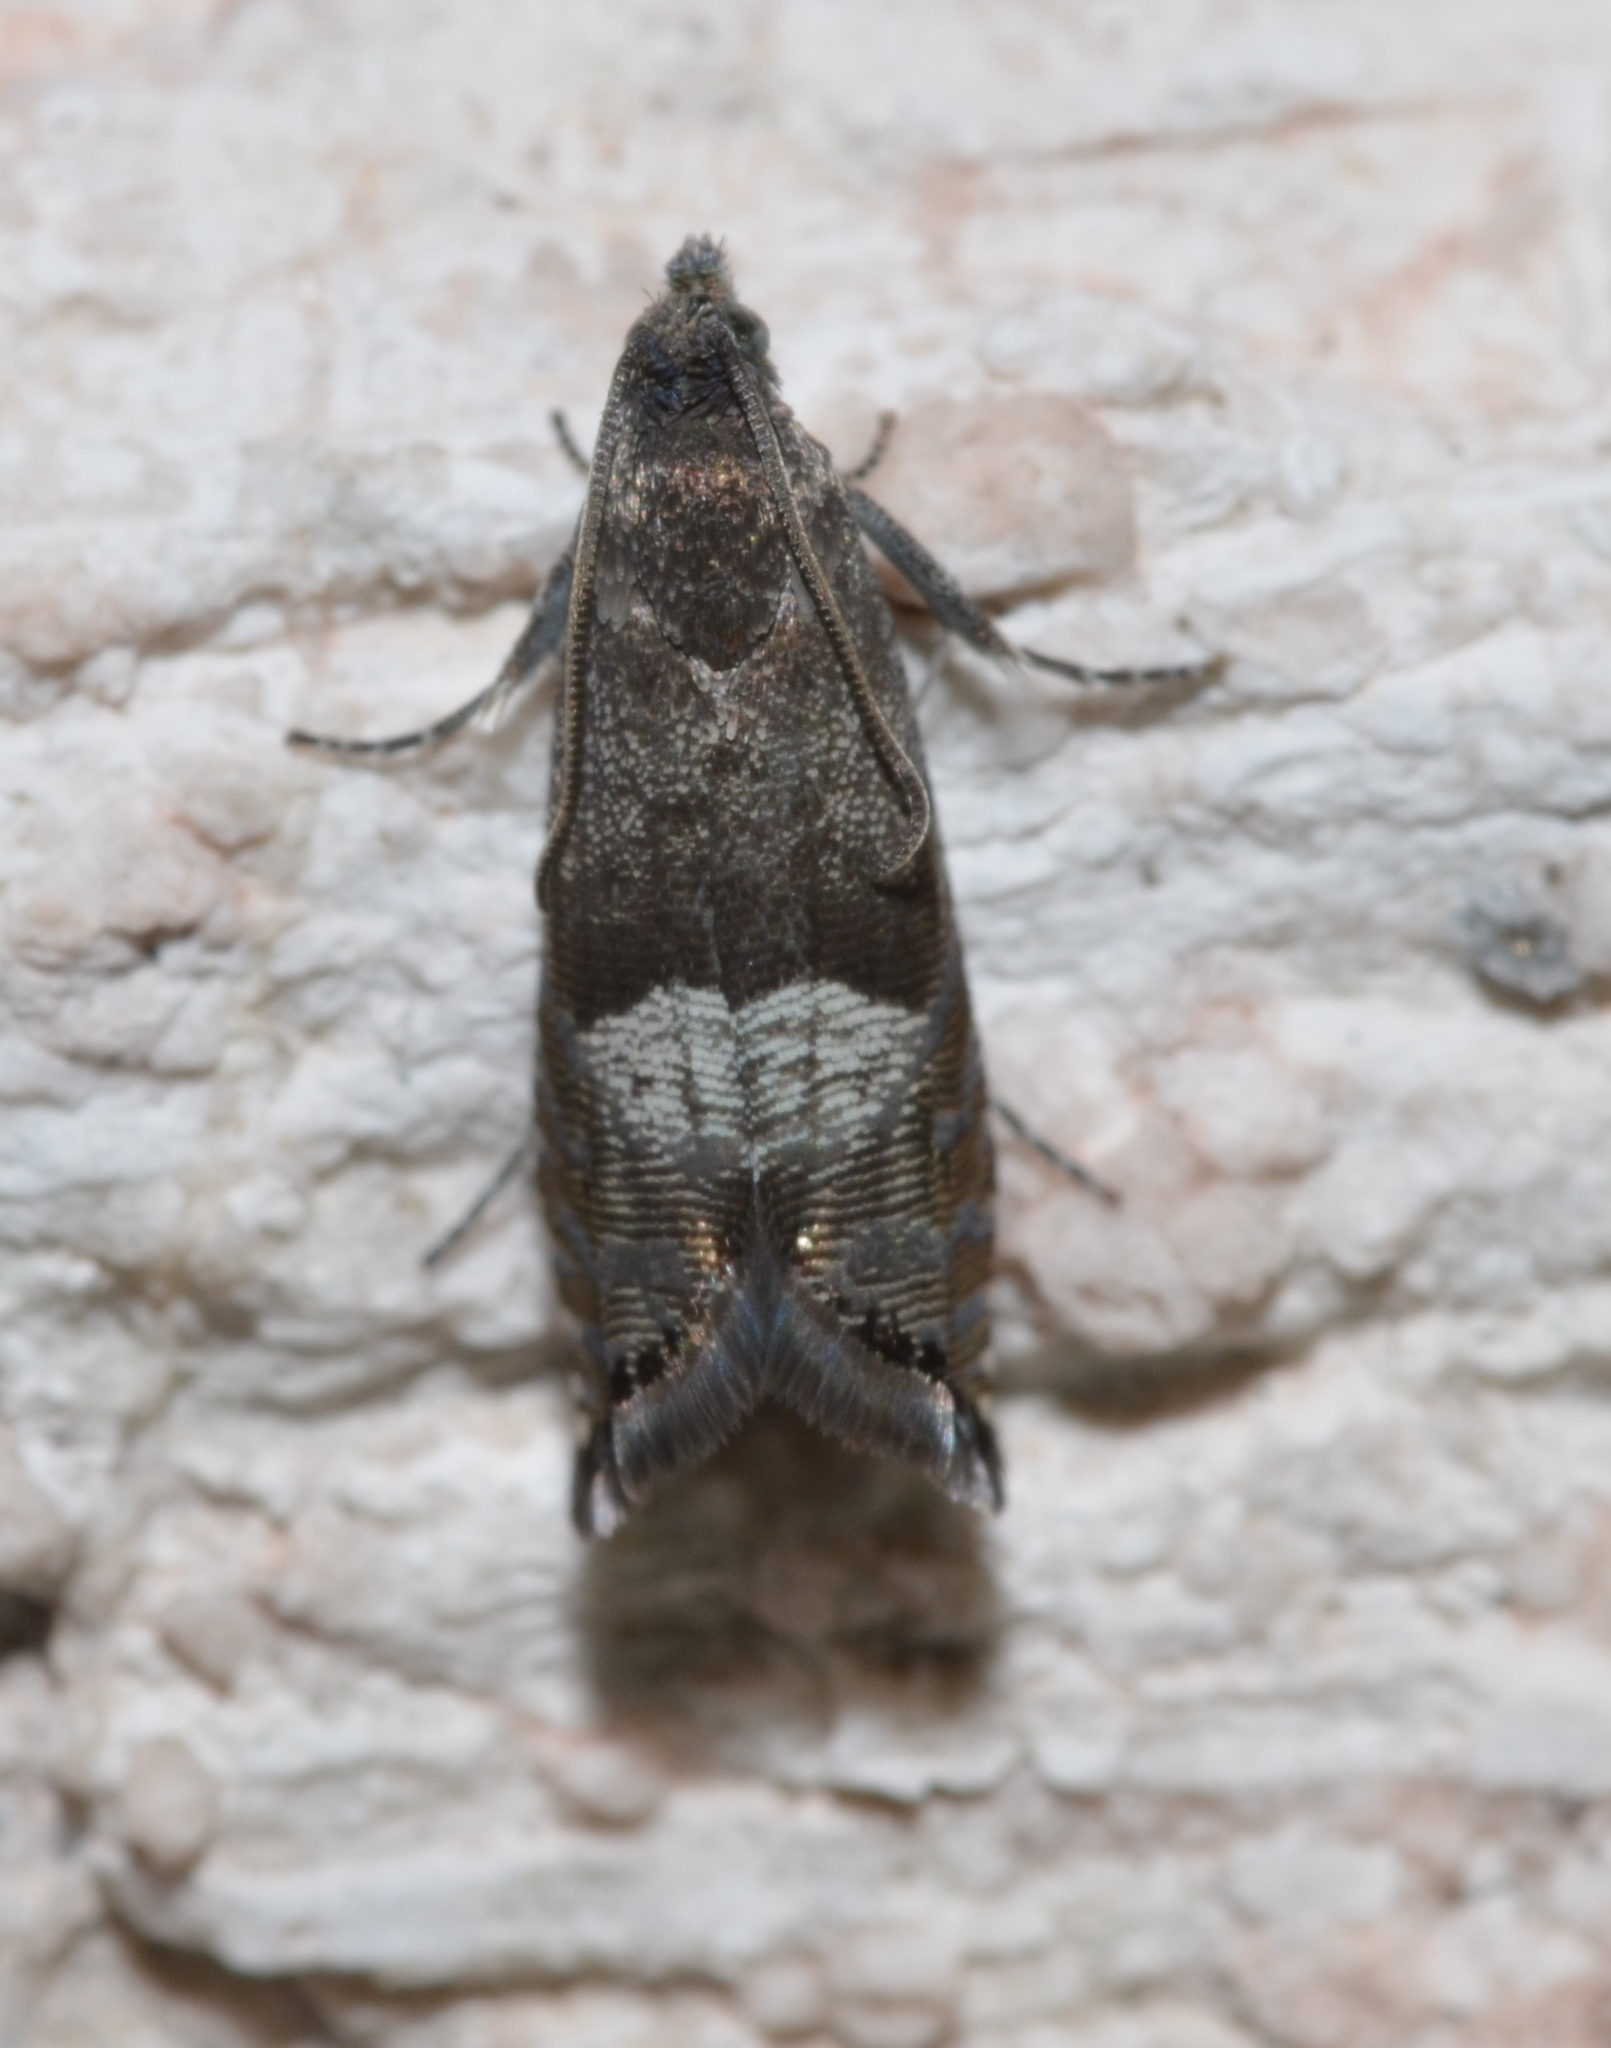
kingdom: Animalia
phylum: Arthropoda
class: Insecta
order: Lepidoptera
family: Tortricidae
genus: Sereda
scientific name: Sereda tautana
